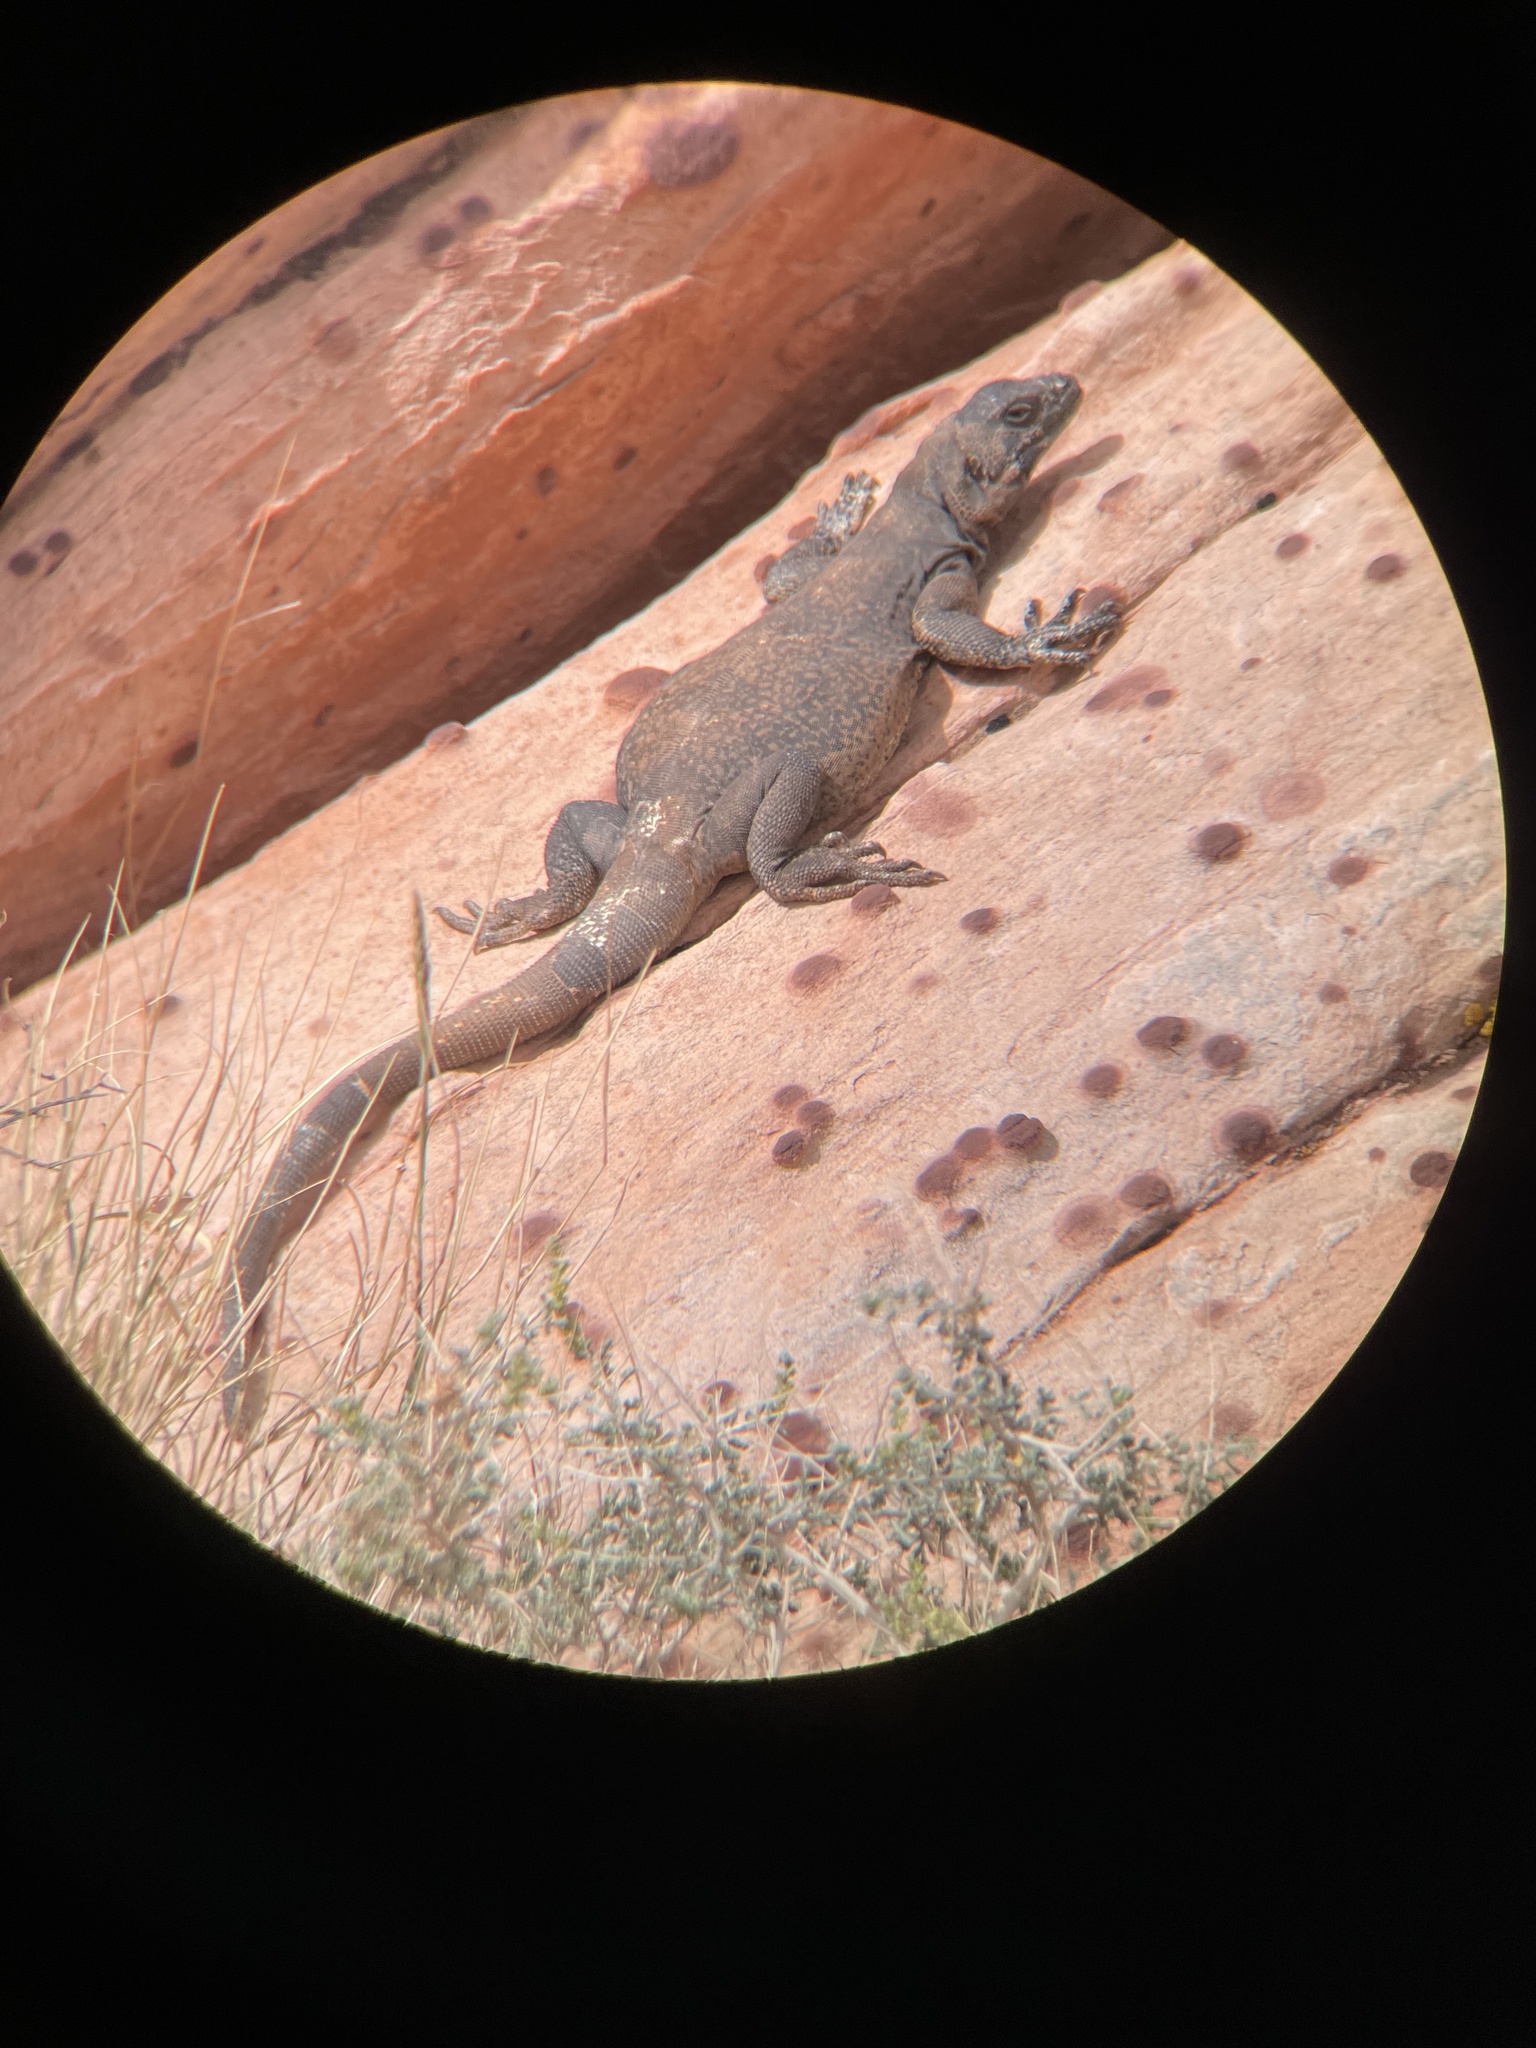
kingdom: Animalia
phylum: Chordata
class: Squamata
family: Iguanidae
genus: Sauromalus
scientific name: Sauromalus ater
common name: Northern chuckwalla
